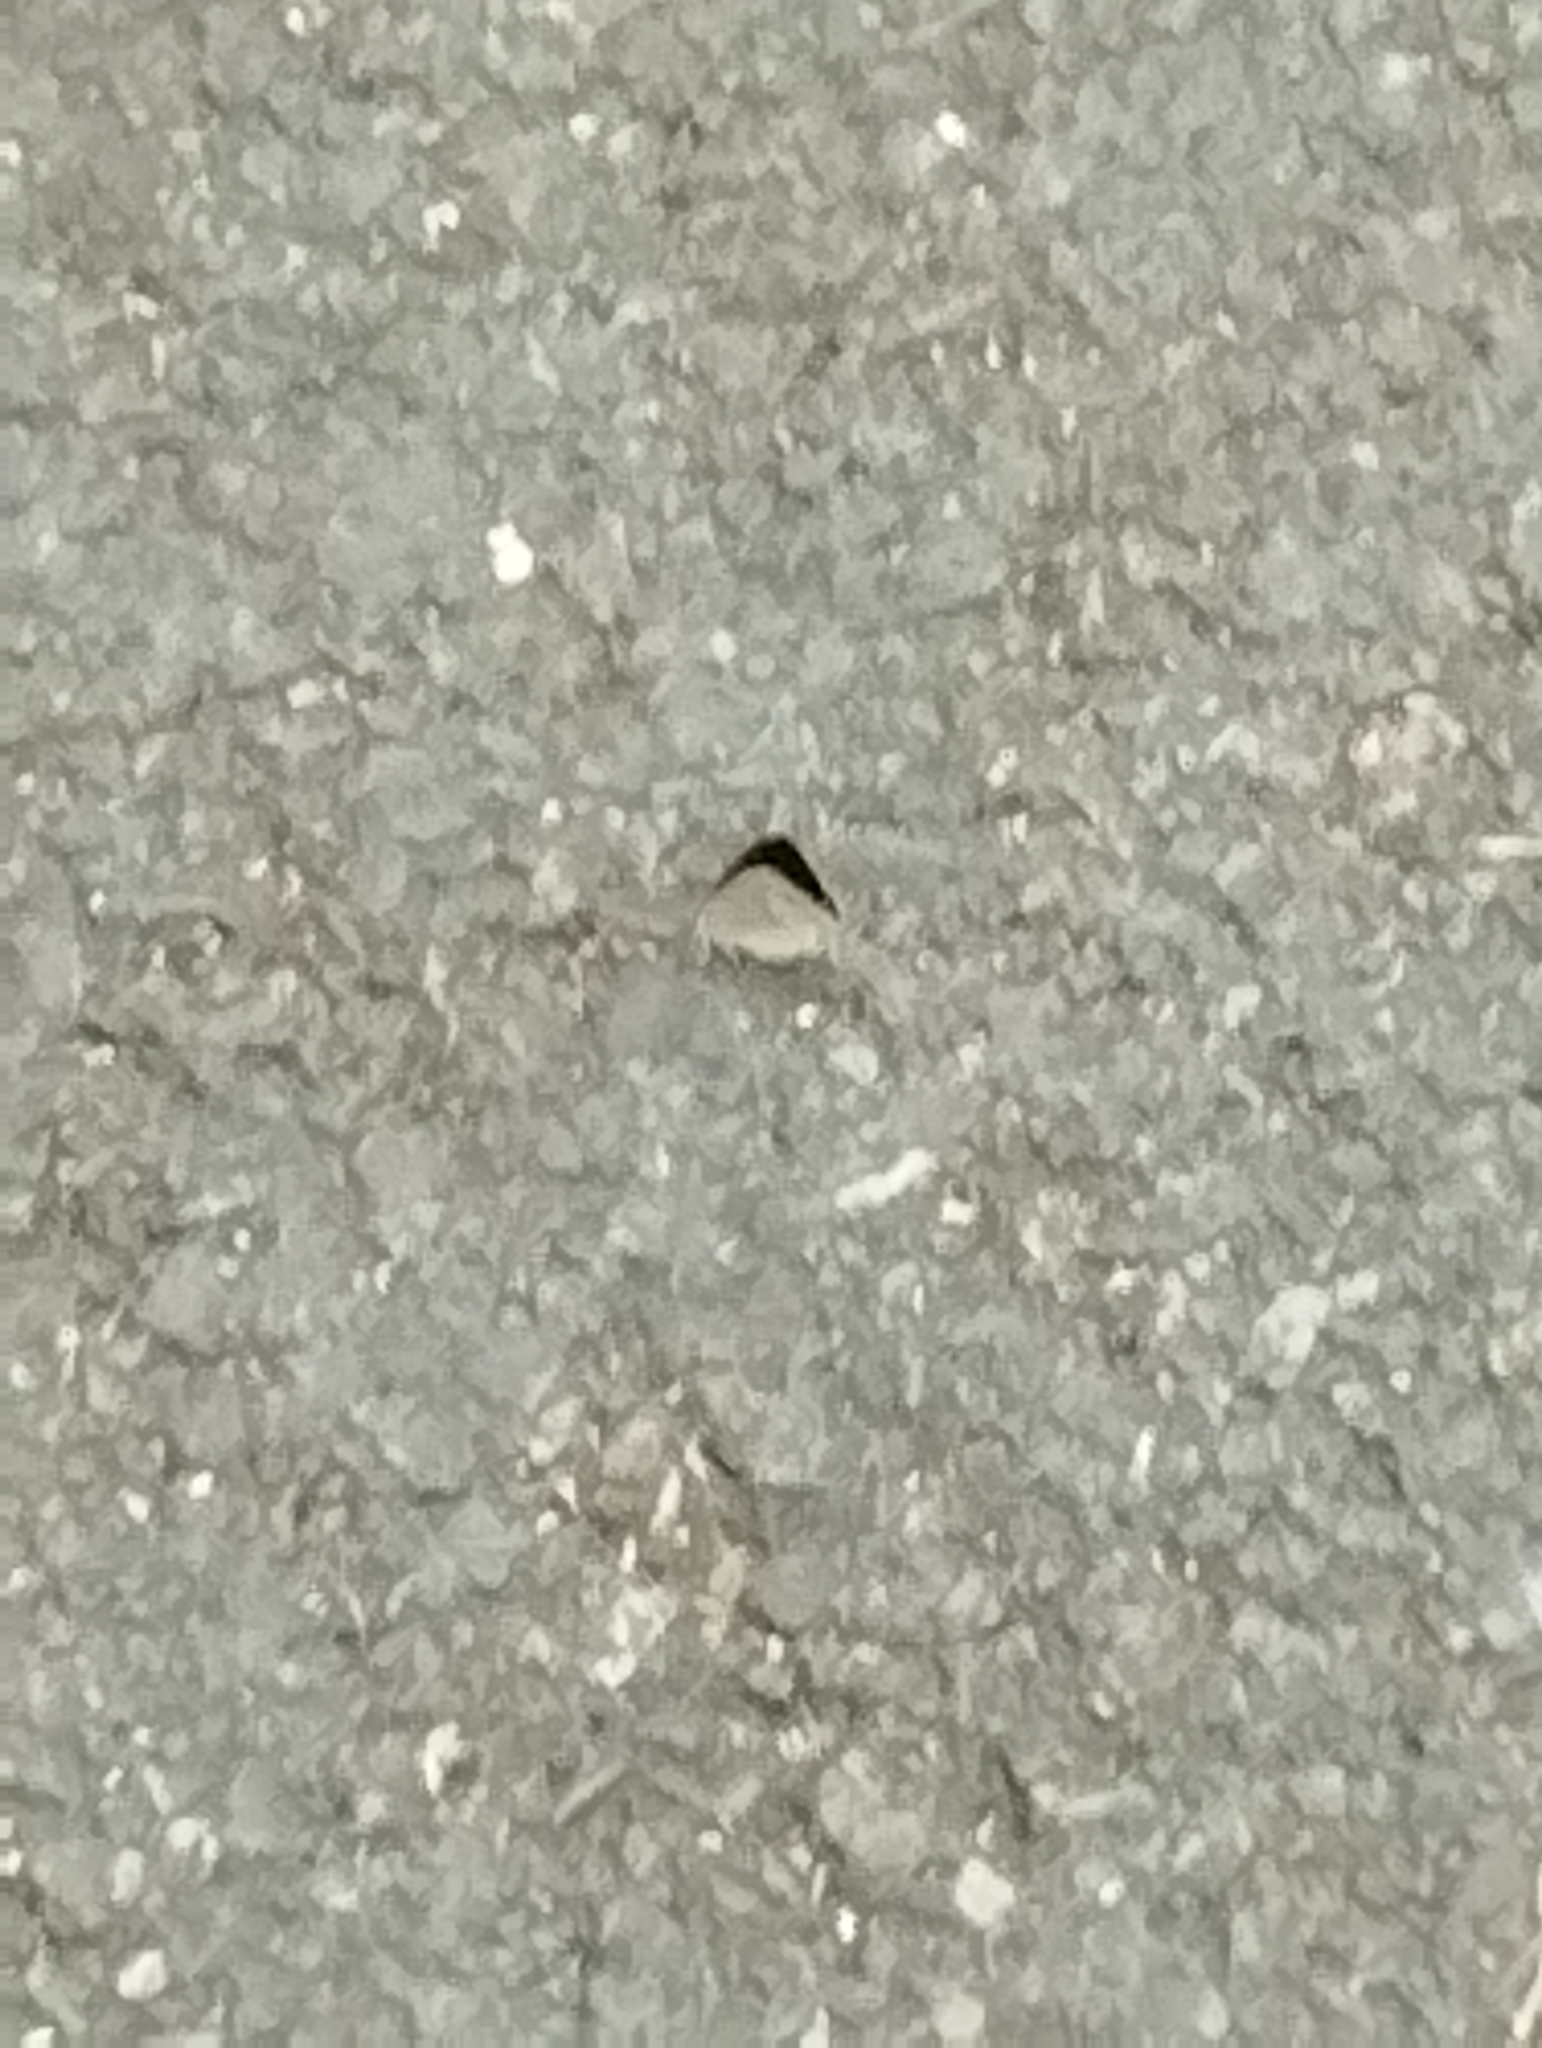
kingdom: Animalia
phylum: Arthropoda
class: Insecta
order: Lepidoptera
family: Lycaenidae
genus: Quercusia
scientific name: Quercusia quercus
